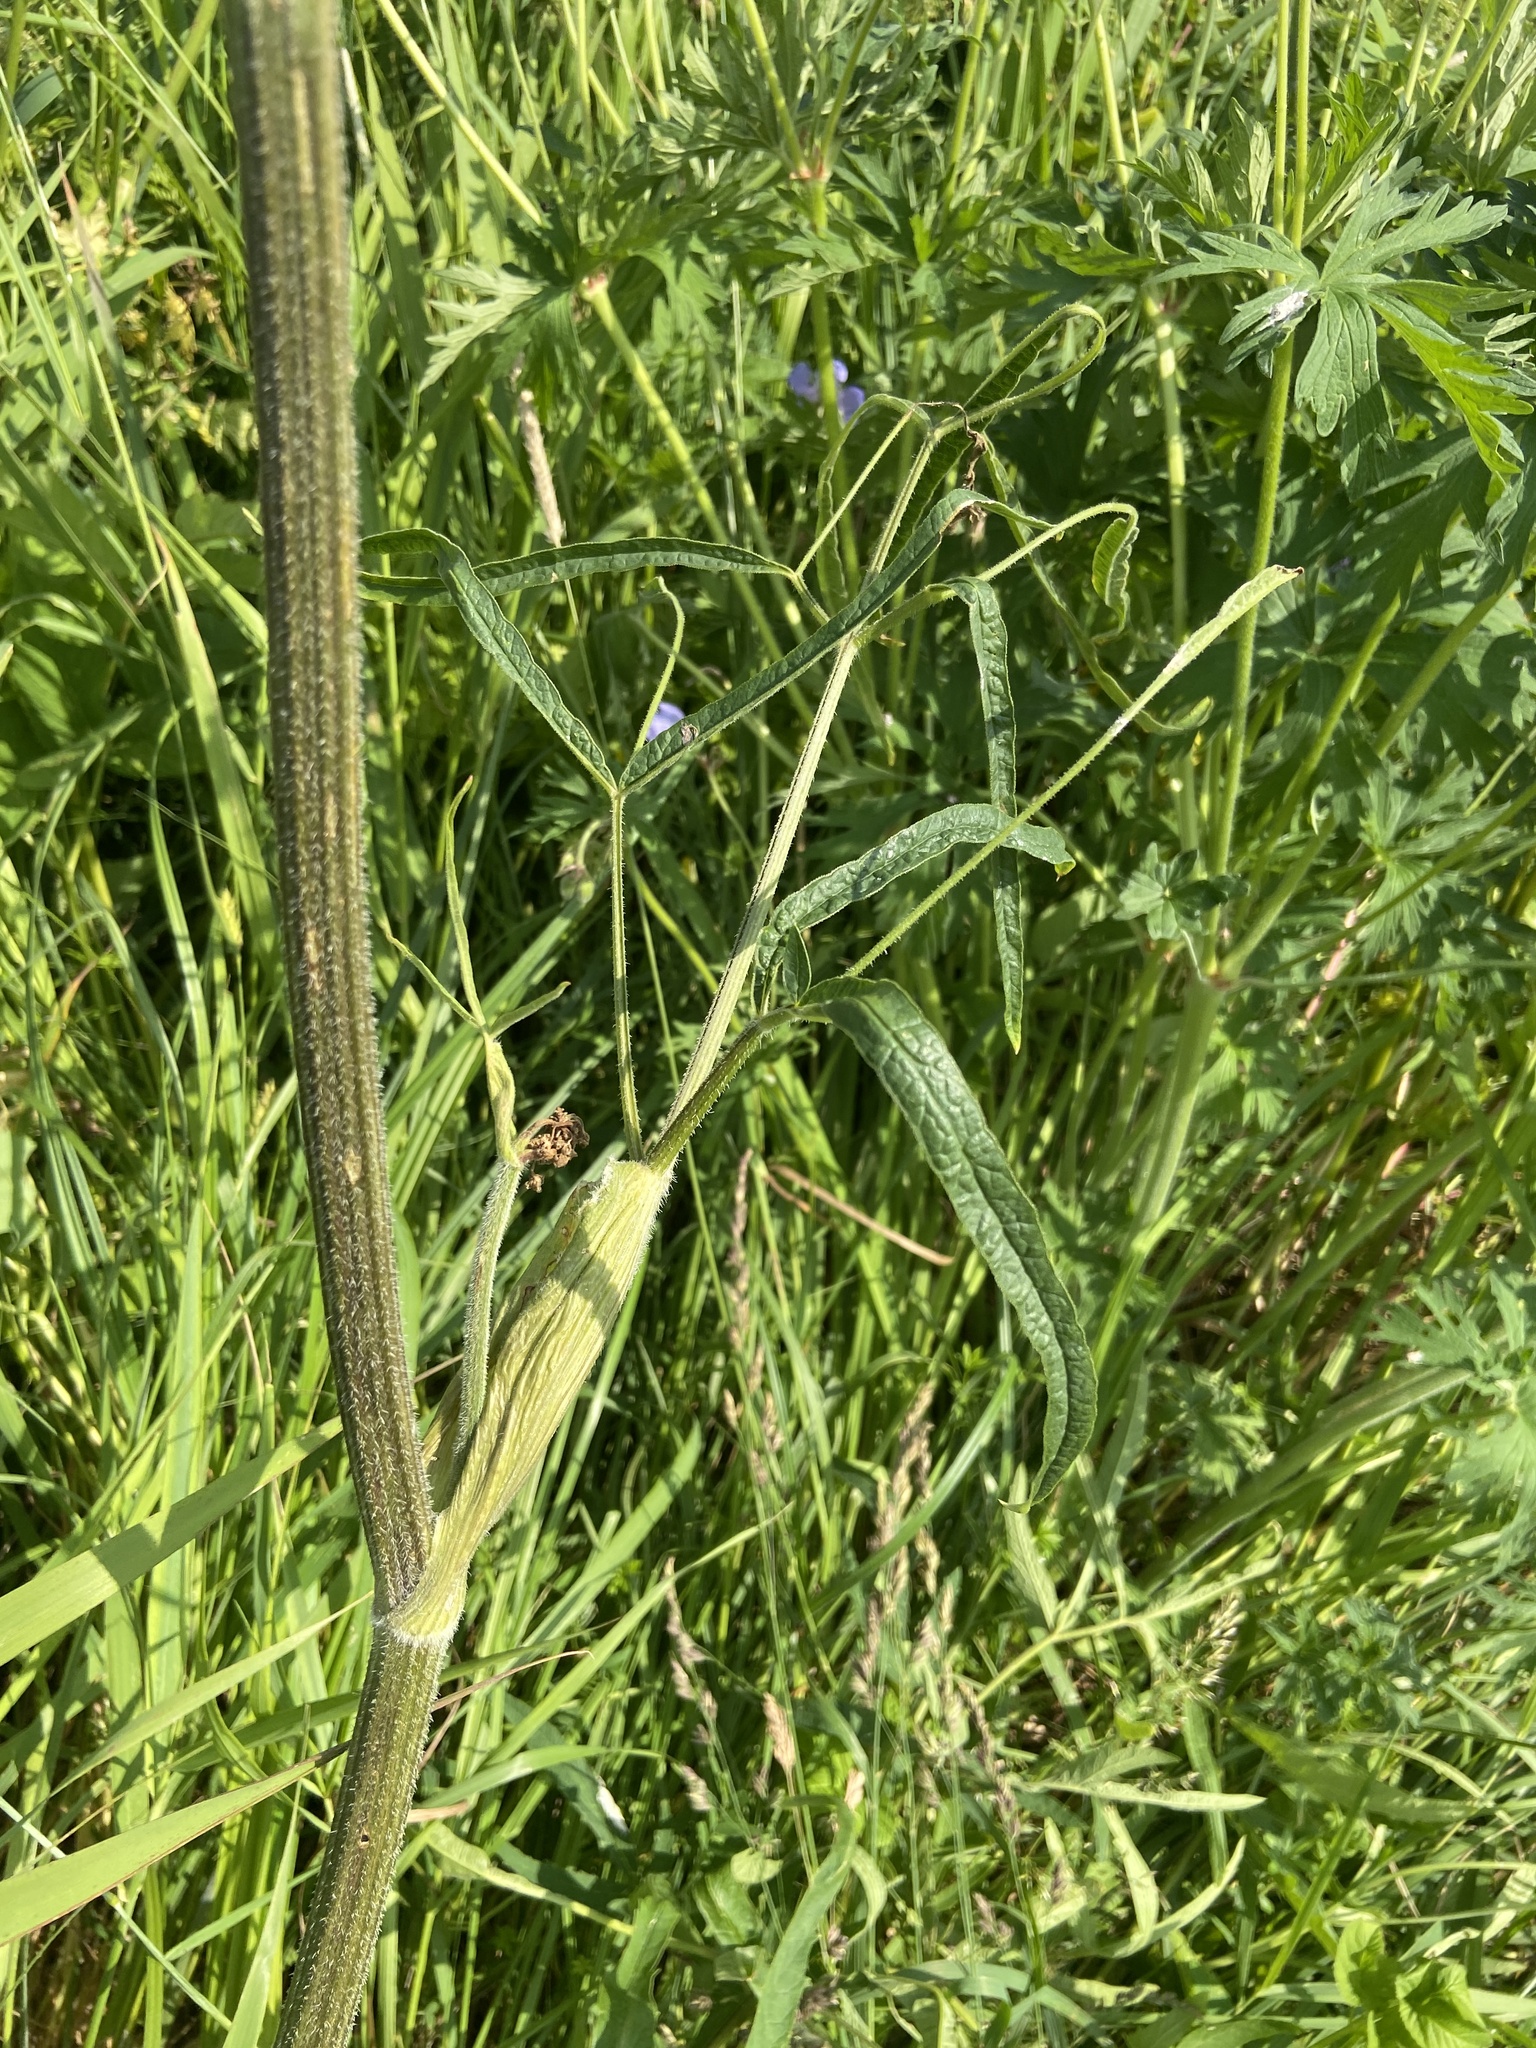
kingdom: Plantae
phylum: Tracheophyta
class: Magnoliopsida
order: Apiales
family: Apiaceae
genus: Heracleum
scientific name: Heracleum sphondylium
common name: Hogweed
